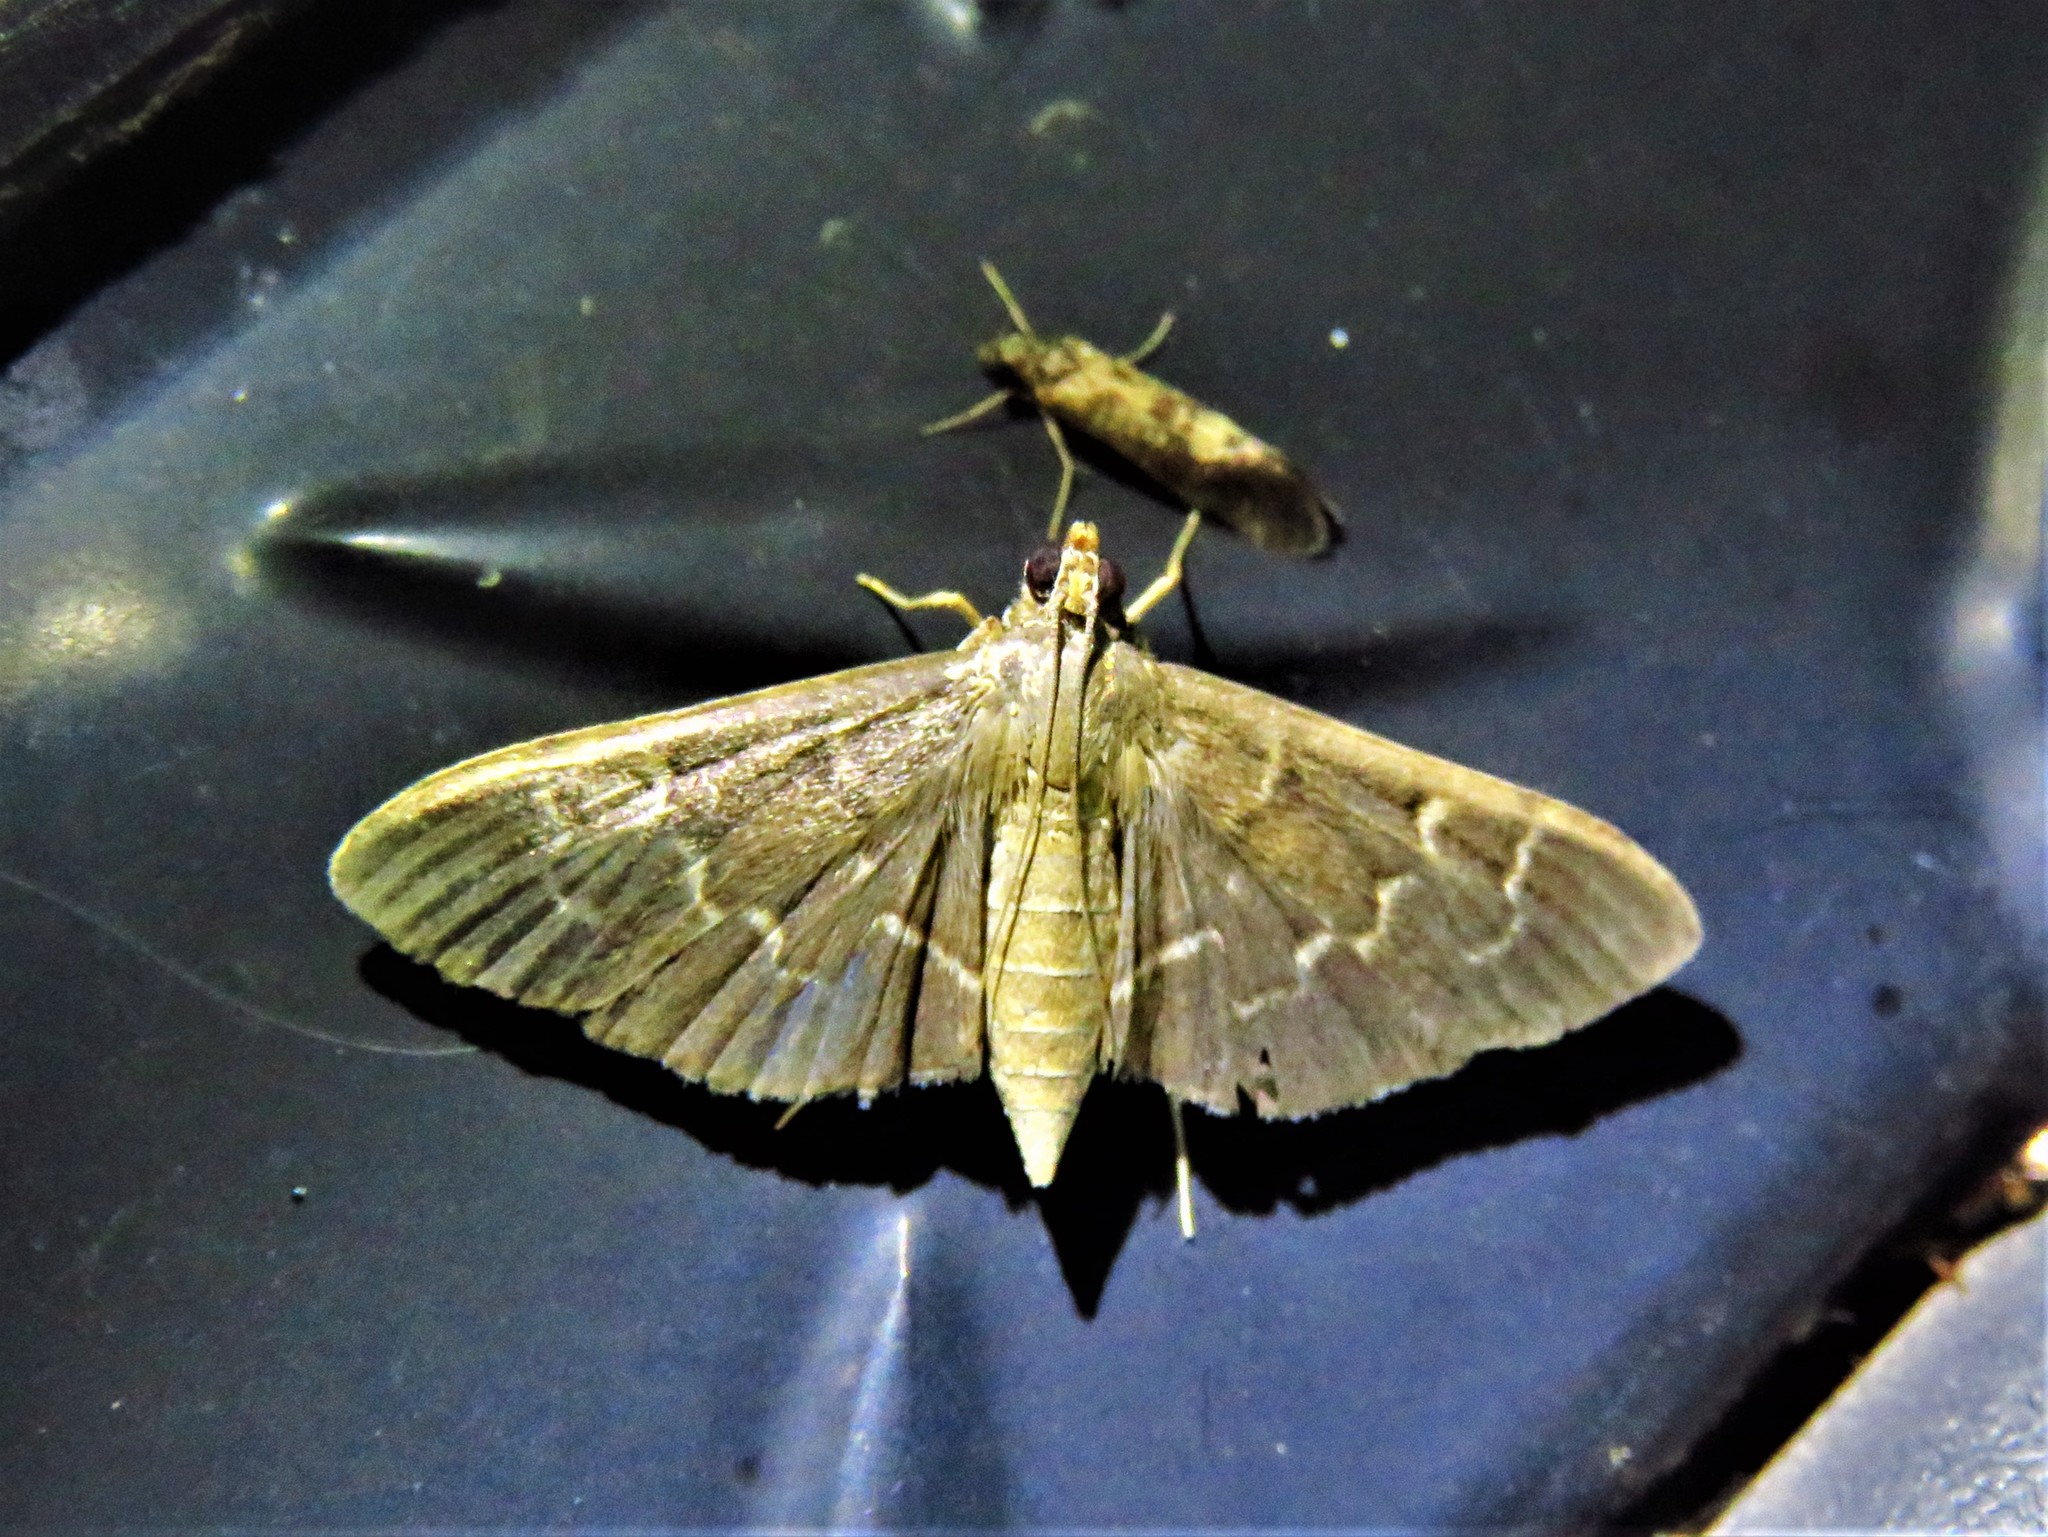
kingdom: Animalia
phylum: Arthropoda
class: Insecta
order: Lepidoptera
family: Crambidae
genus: Pilocrocis
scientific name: Pilocrocis ramentalis
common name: Scraped pilocrocis
